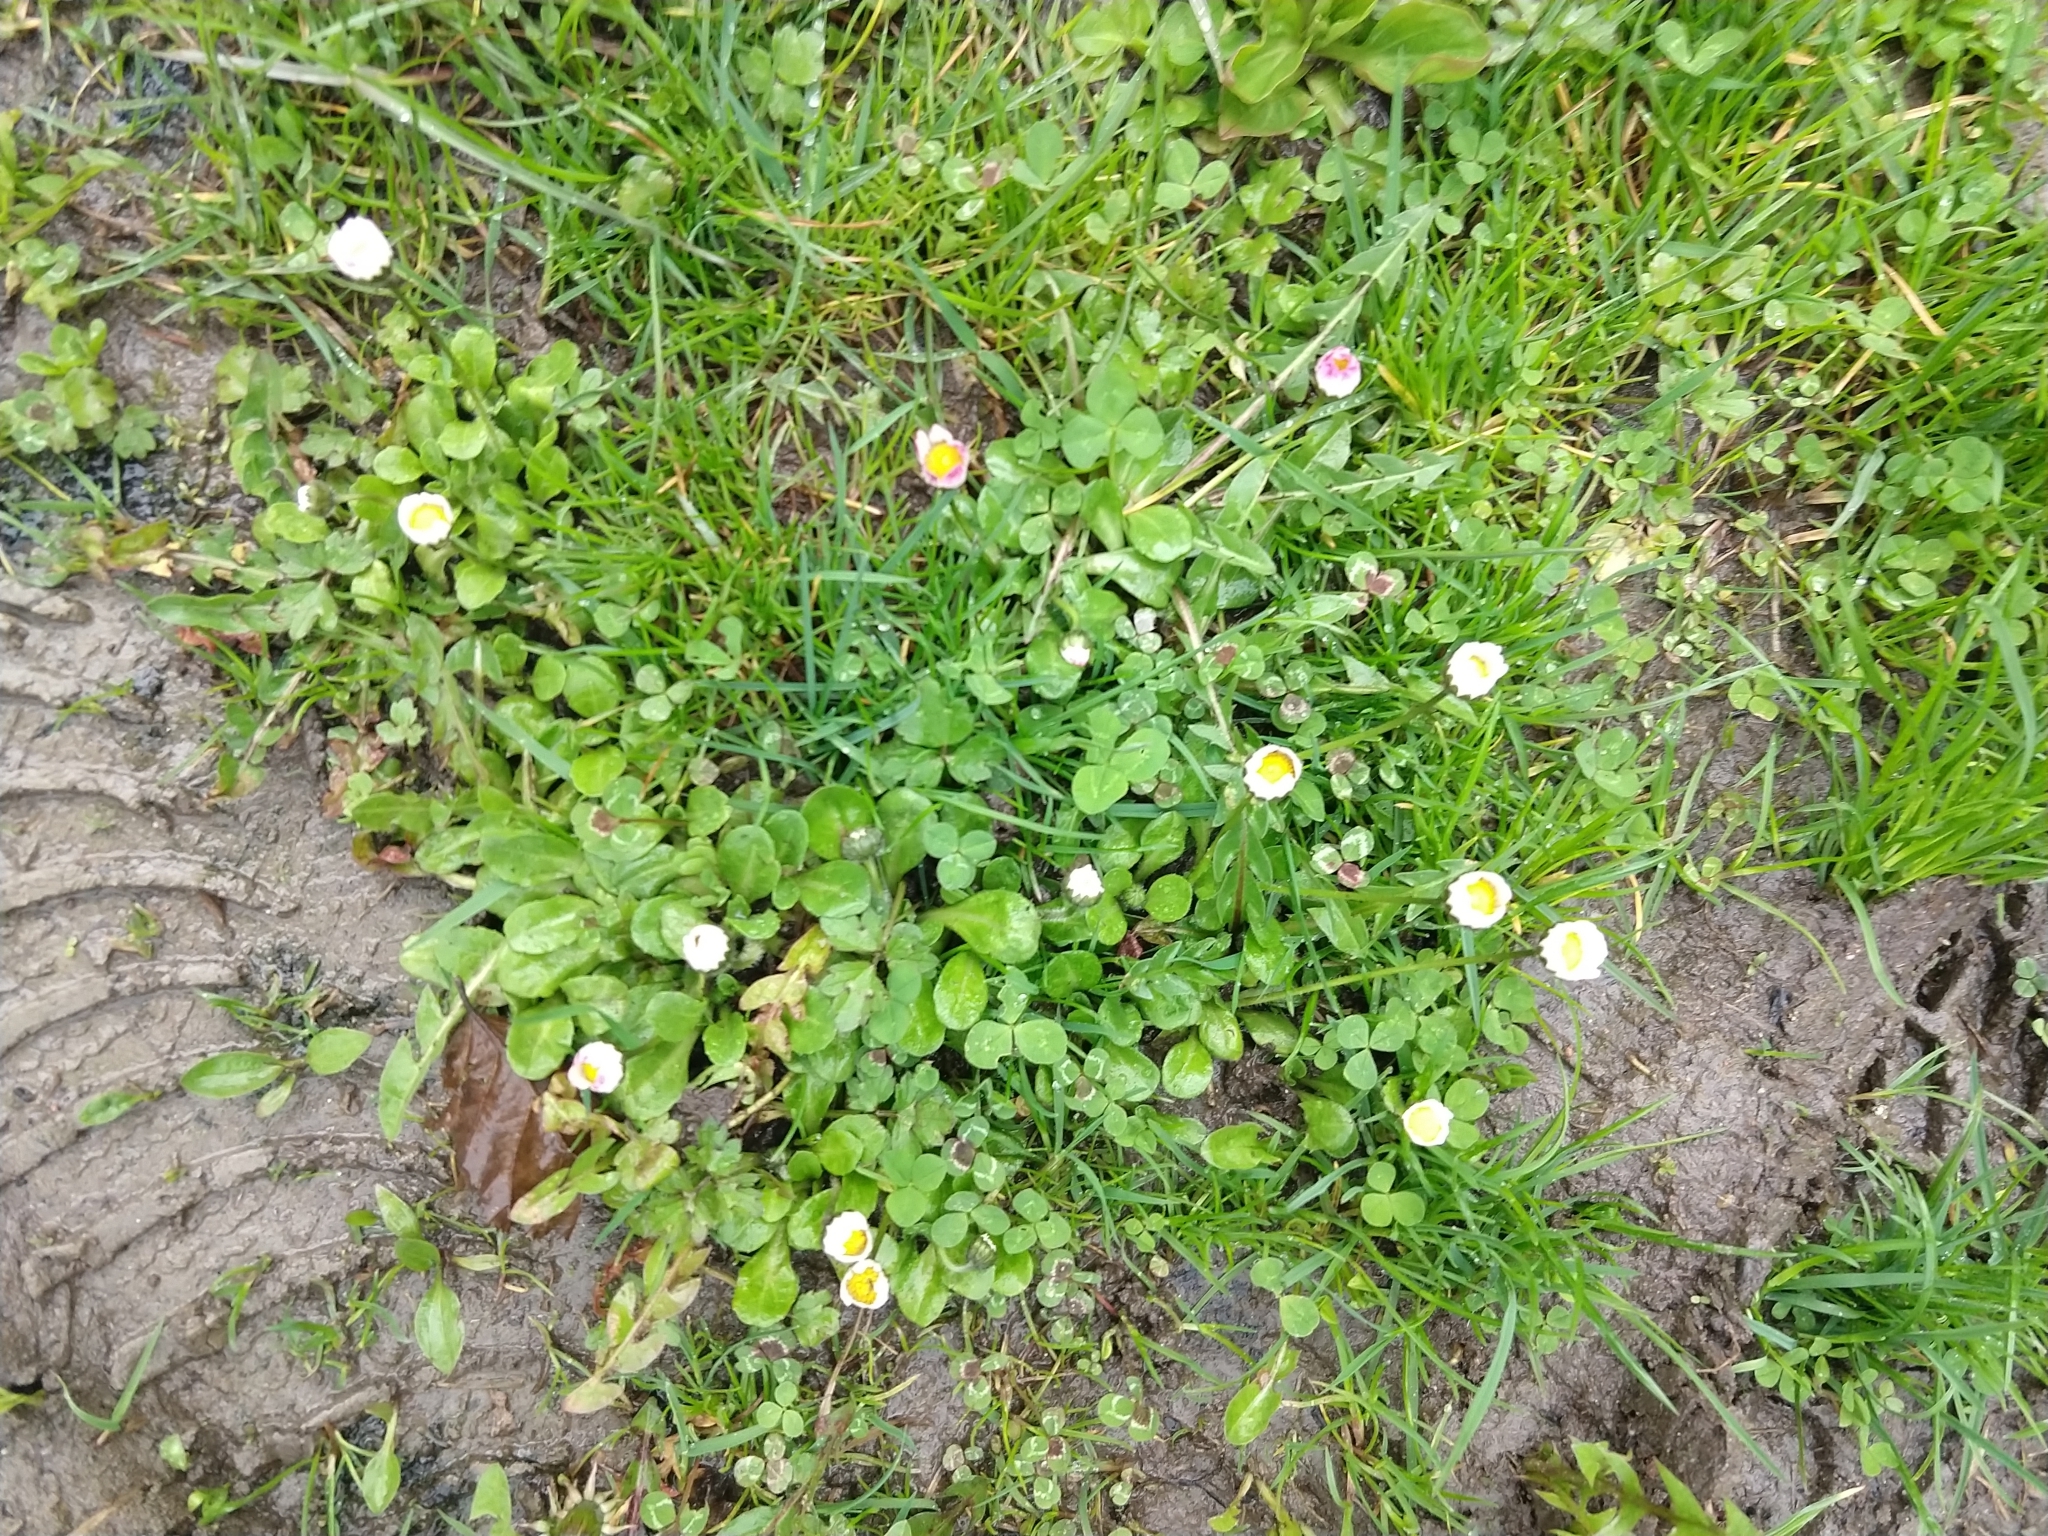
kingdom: Plantae
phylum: Tracheophyta
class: Magnoliopsida
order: Asterales
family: Asteraceae
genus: Bellis
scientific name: Bellis perennis
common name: Lawndaisy
